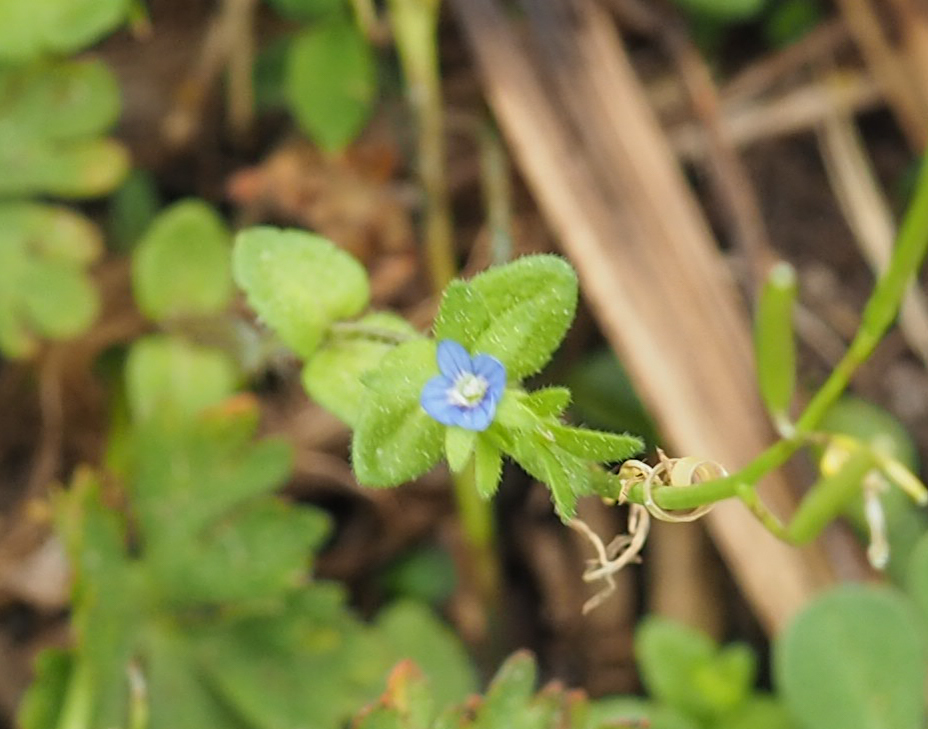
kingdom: Plantae
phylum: Tracheophyta
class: Magnoliopsida
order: Lamiales
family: Plantaginaceae
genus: Veronica
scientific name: Veronica arvensis
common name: Corn speedwell
